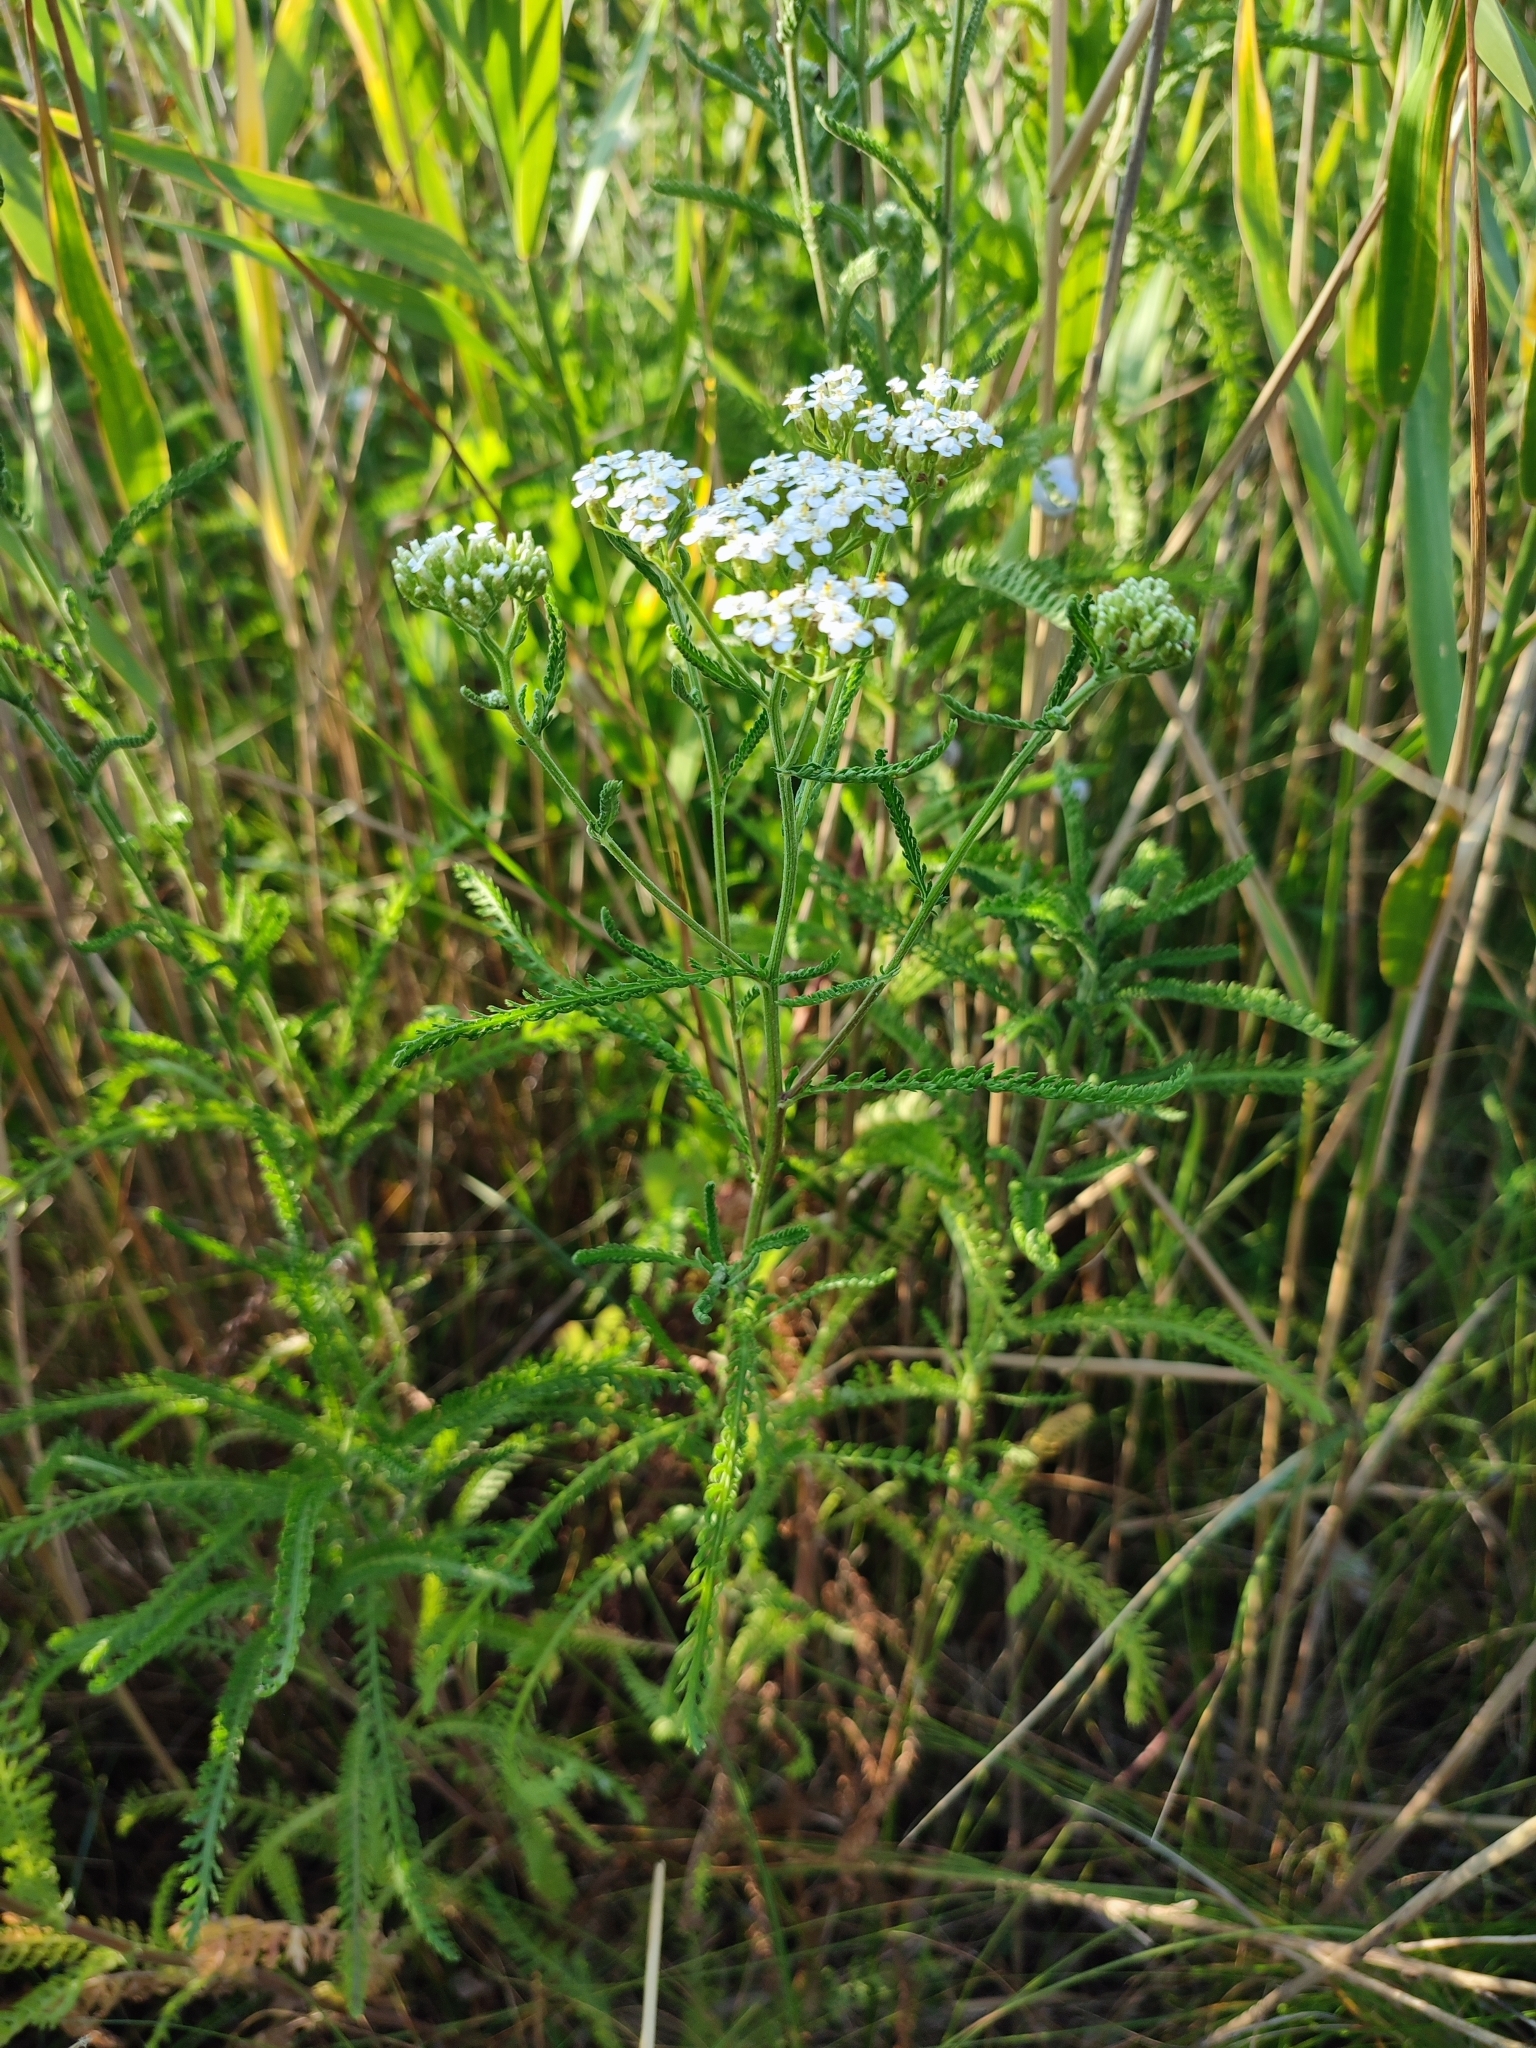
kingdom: Plantae
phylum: Tracheophyta
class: Magnoliopsida
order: Asterales
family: Asteraceae
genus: Achillea
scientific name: Achillea collina
